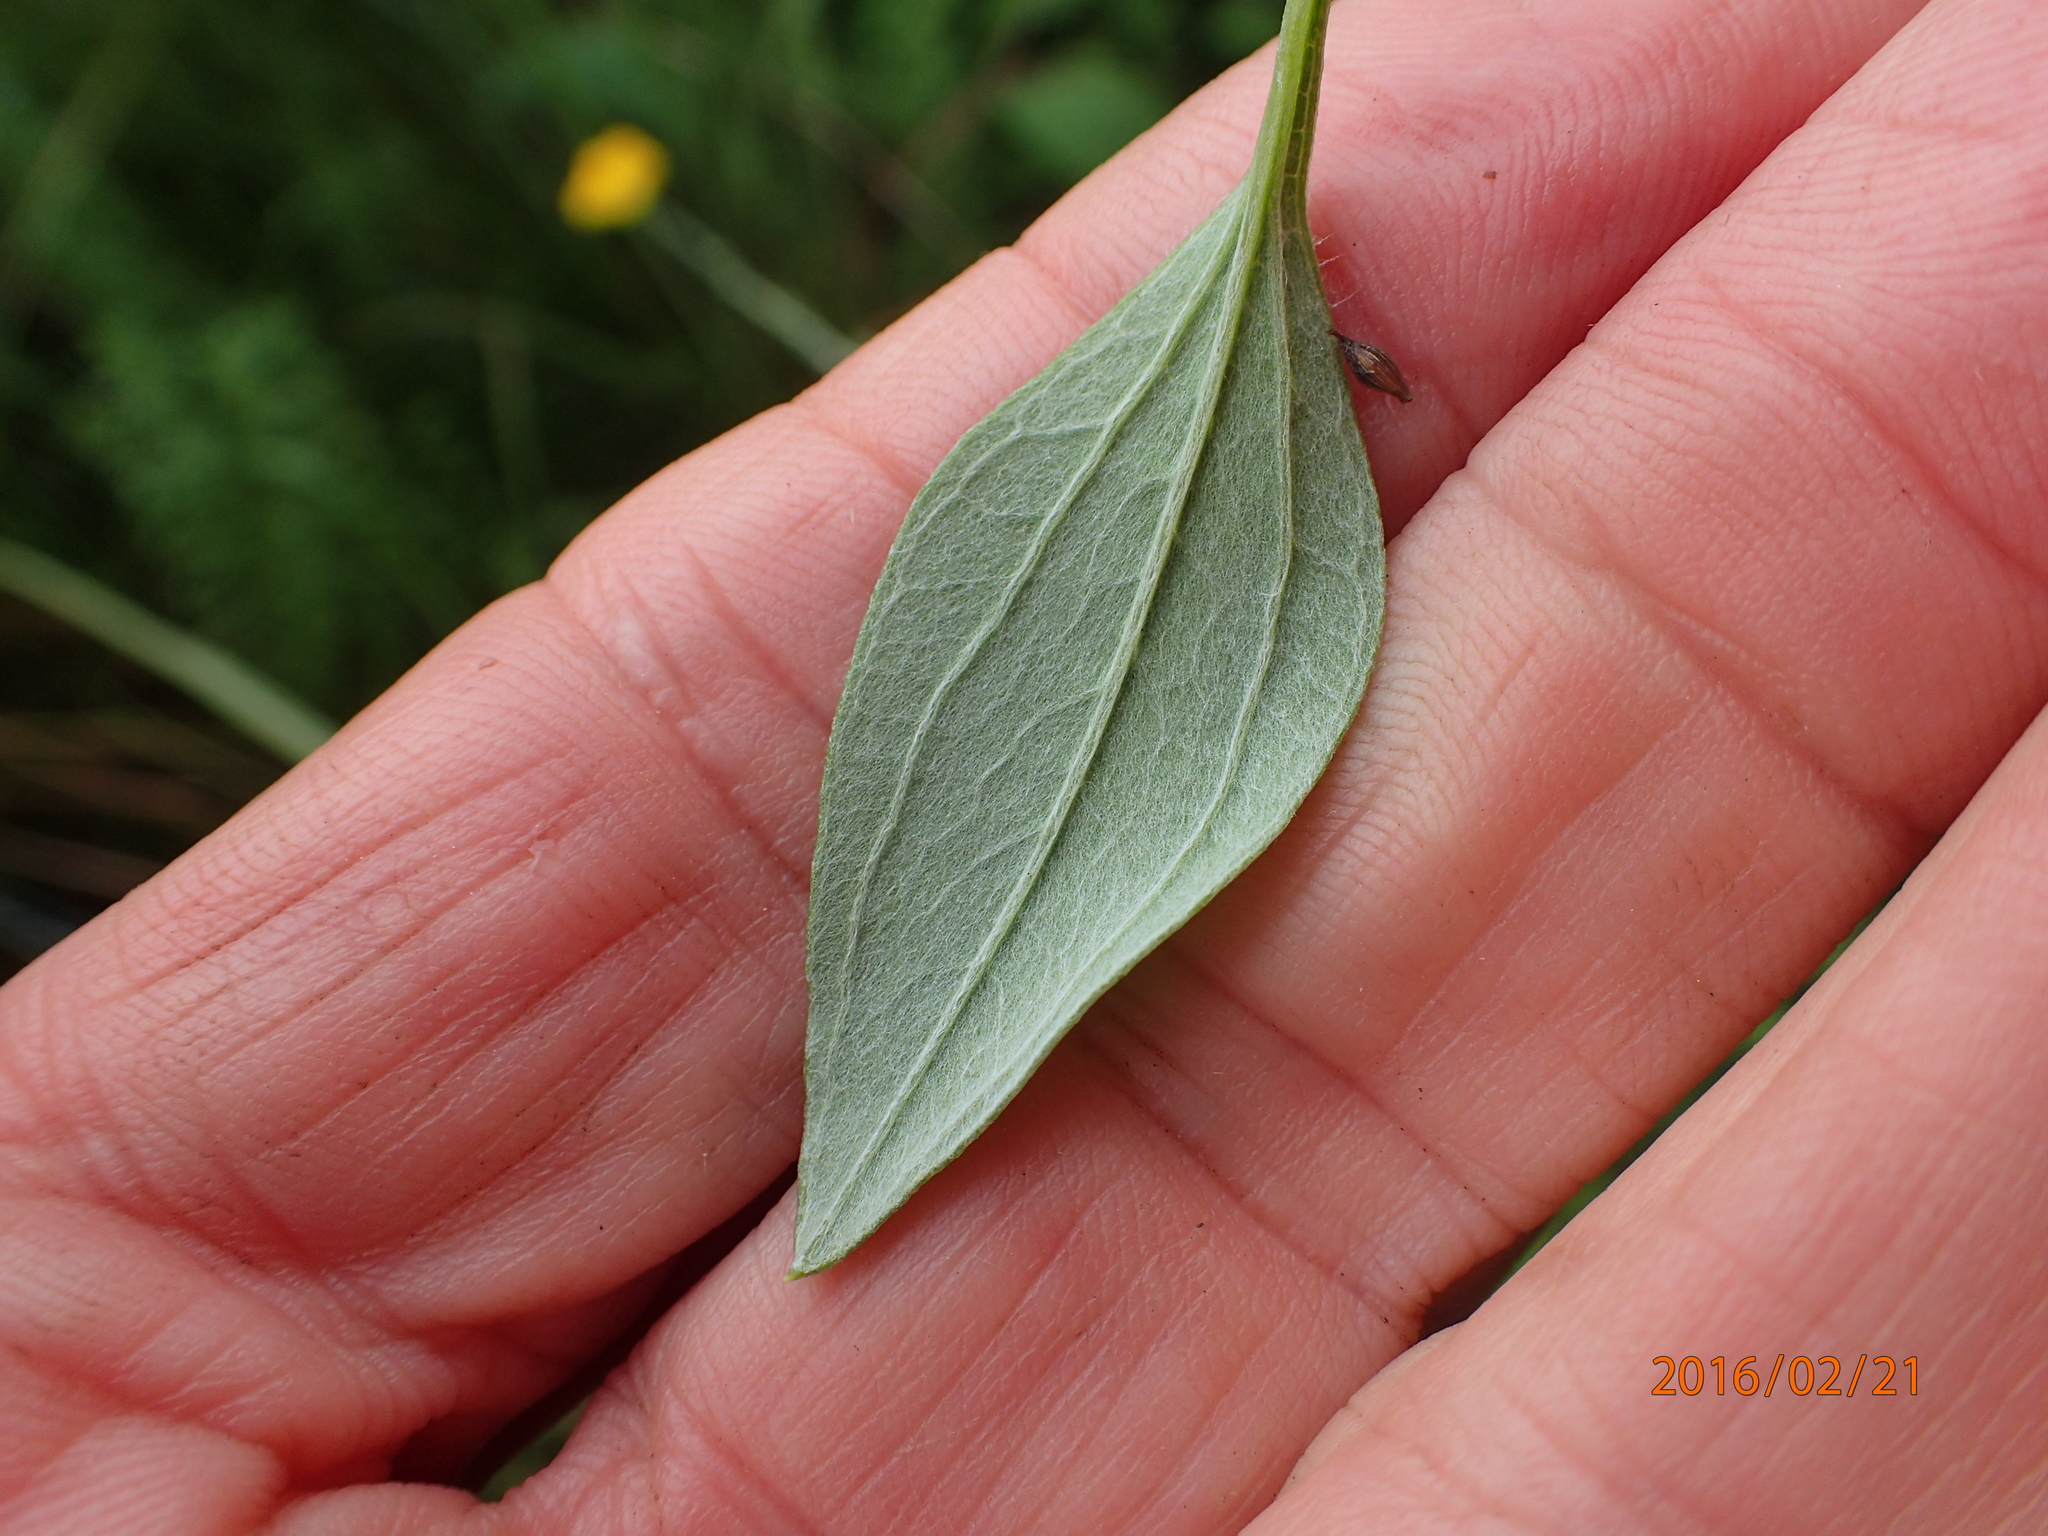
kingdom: Plantae
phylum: Tracheophyta
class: Magnoliopsida
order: Asterales
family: Asteraceae
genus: Helichrysum
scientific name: Helichrysum umbraculigerum
